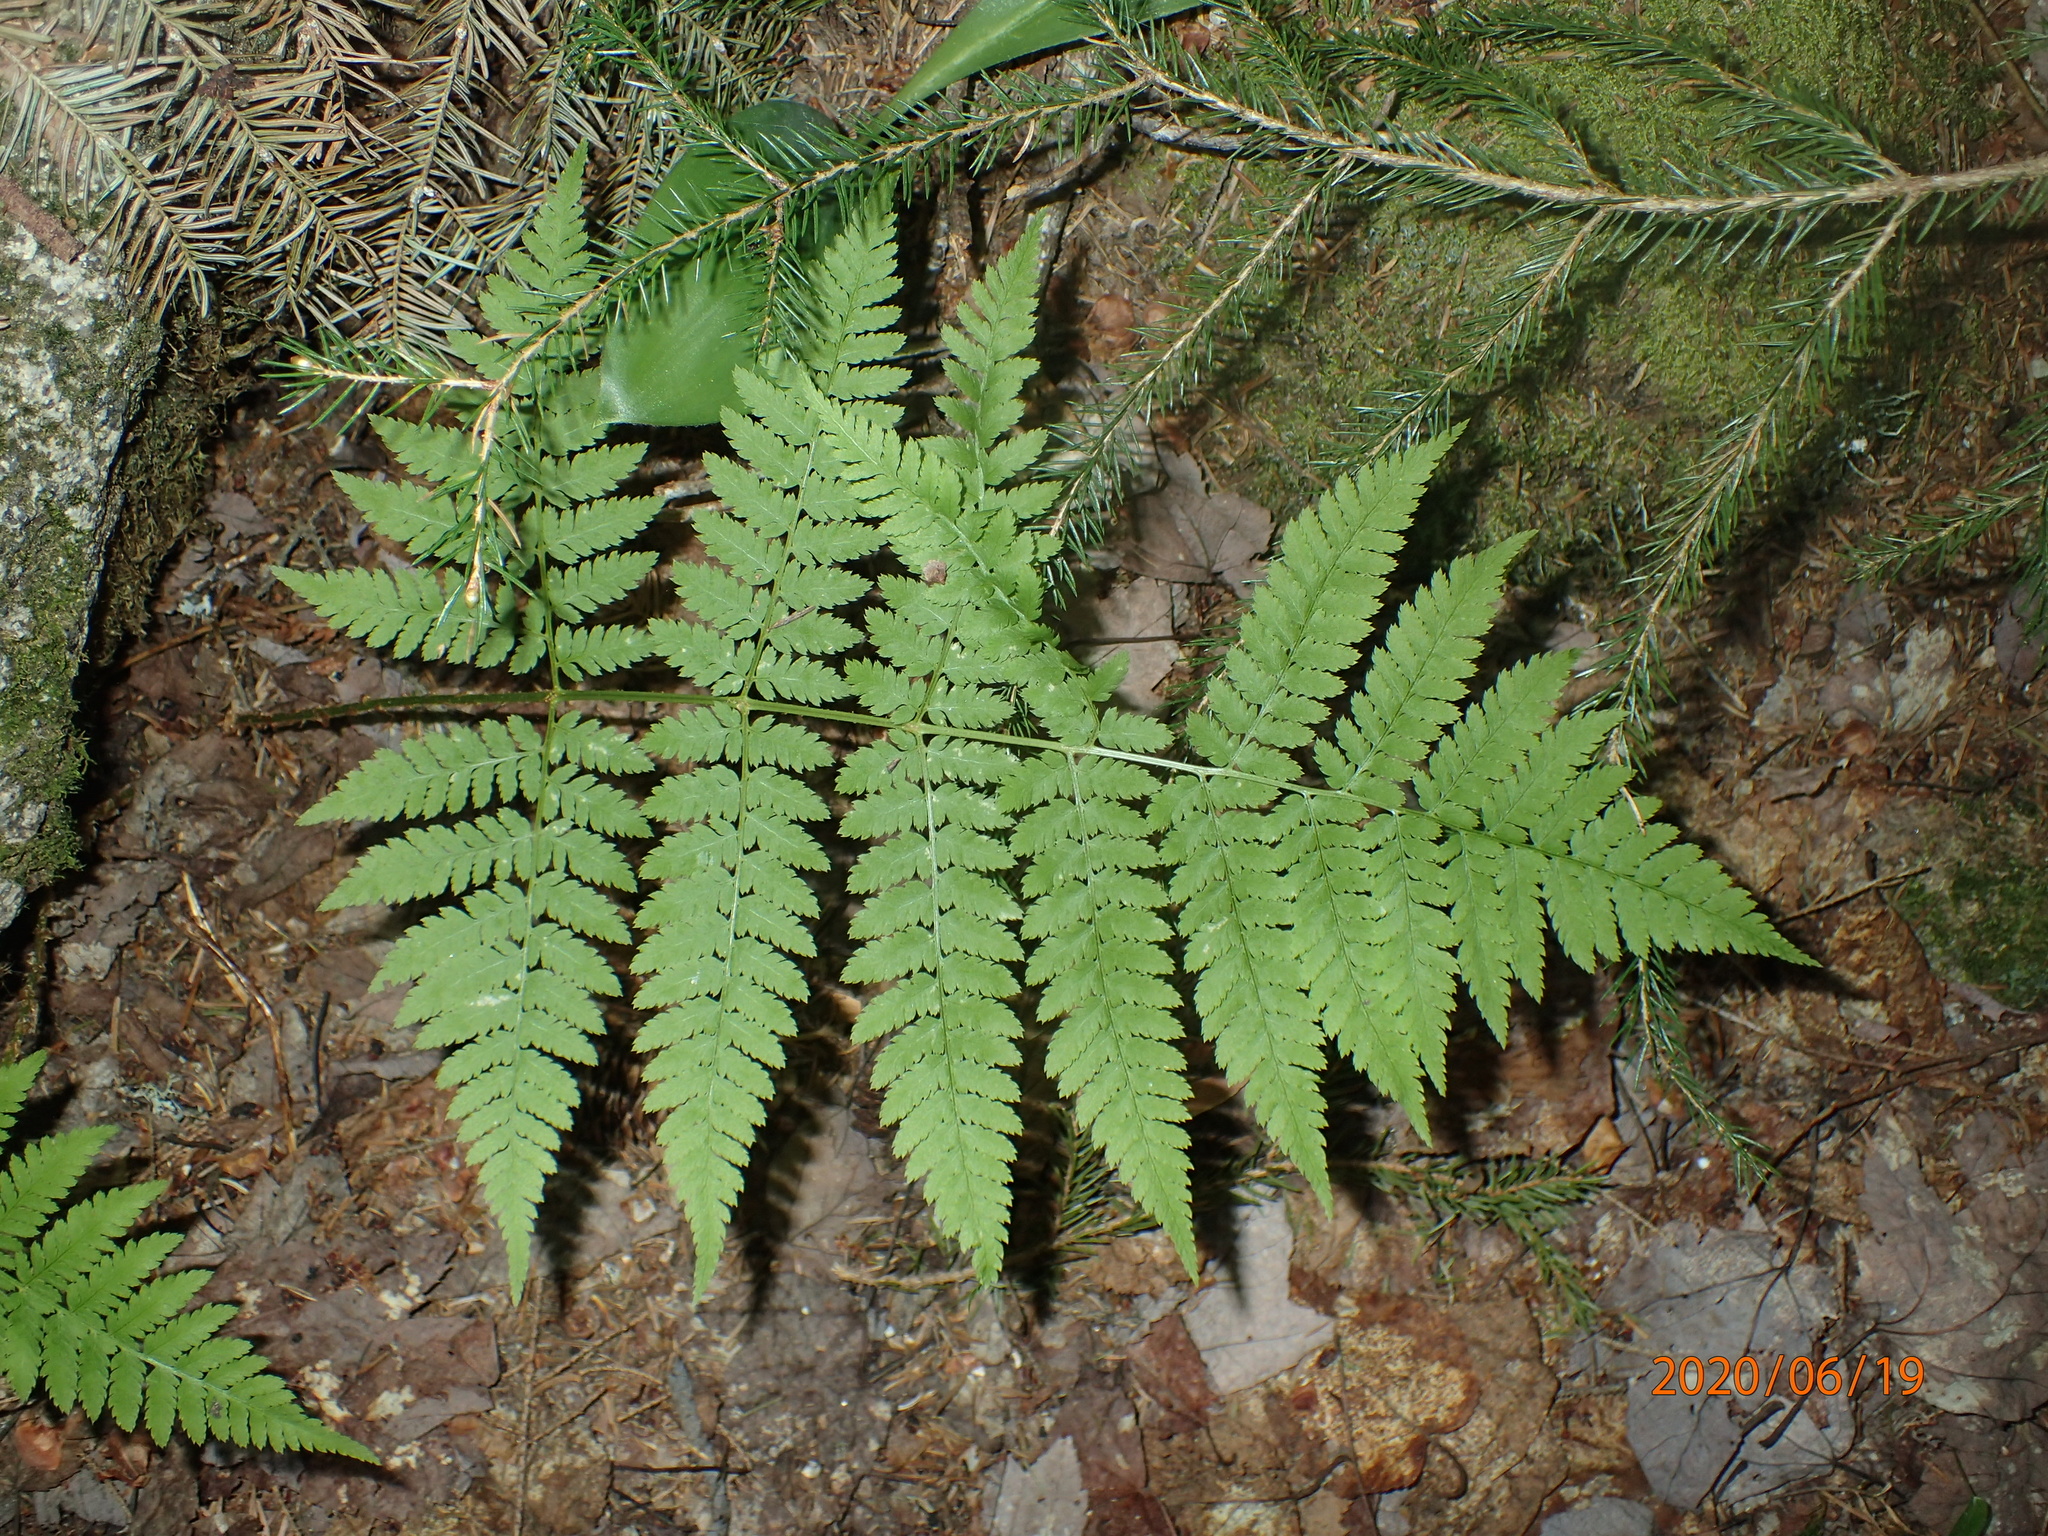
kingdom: Plantae
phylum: Tracheophyta
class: Polypodiopsida
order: Polypodiales
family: Dryopteridaceae
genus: Dryopteris
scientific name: Dryopteris campyloptera
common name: Mountain wood fern
